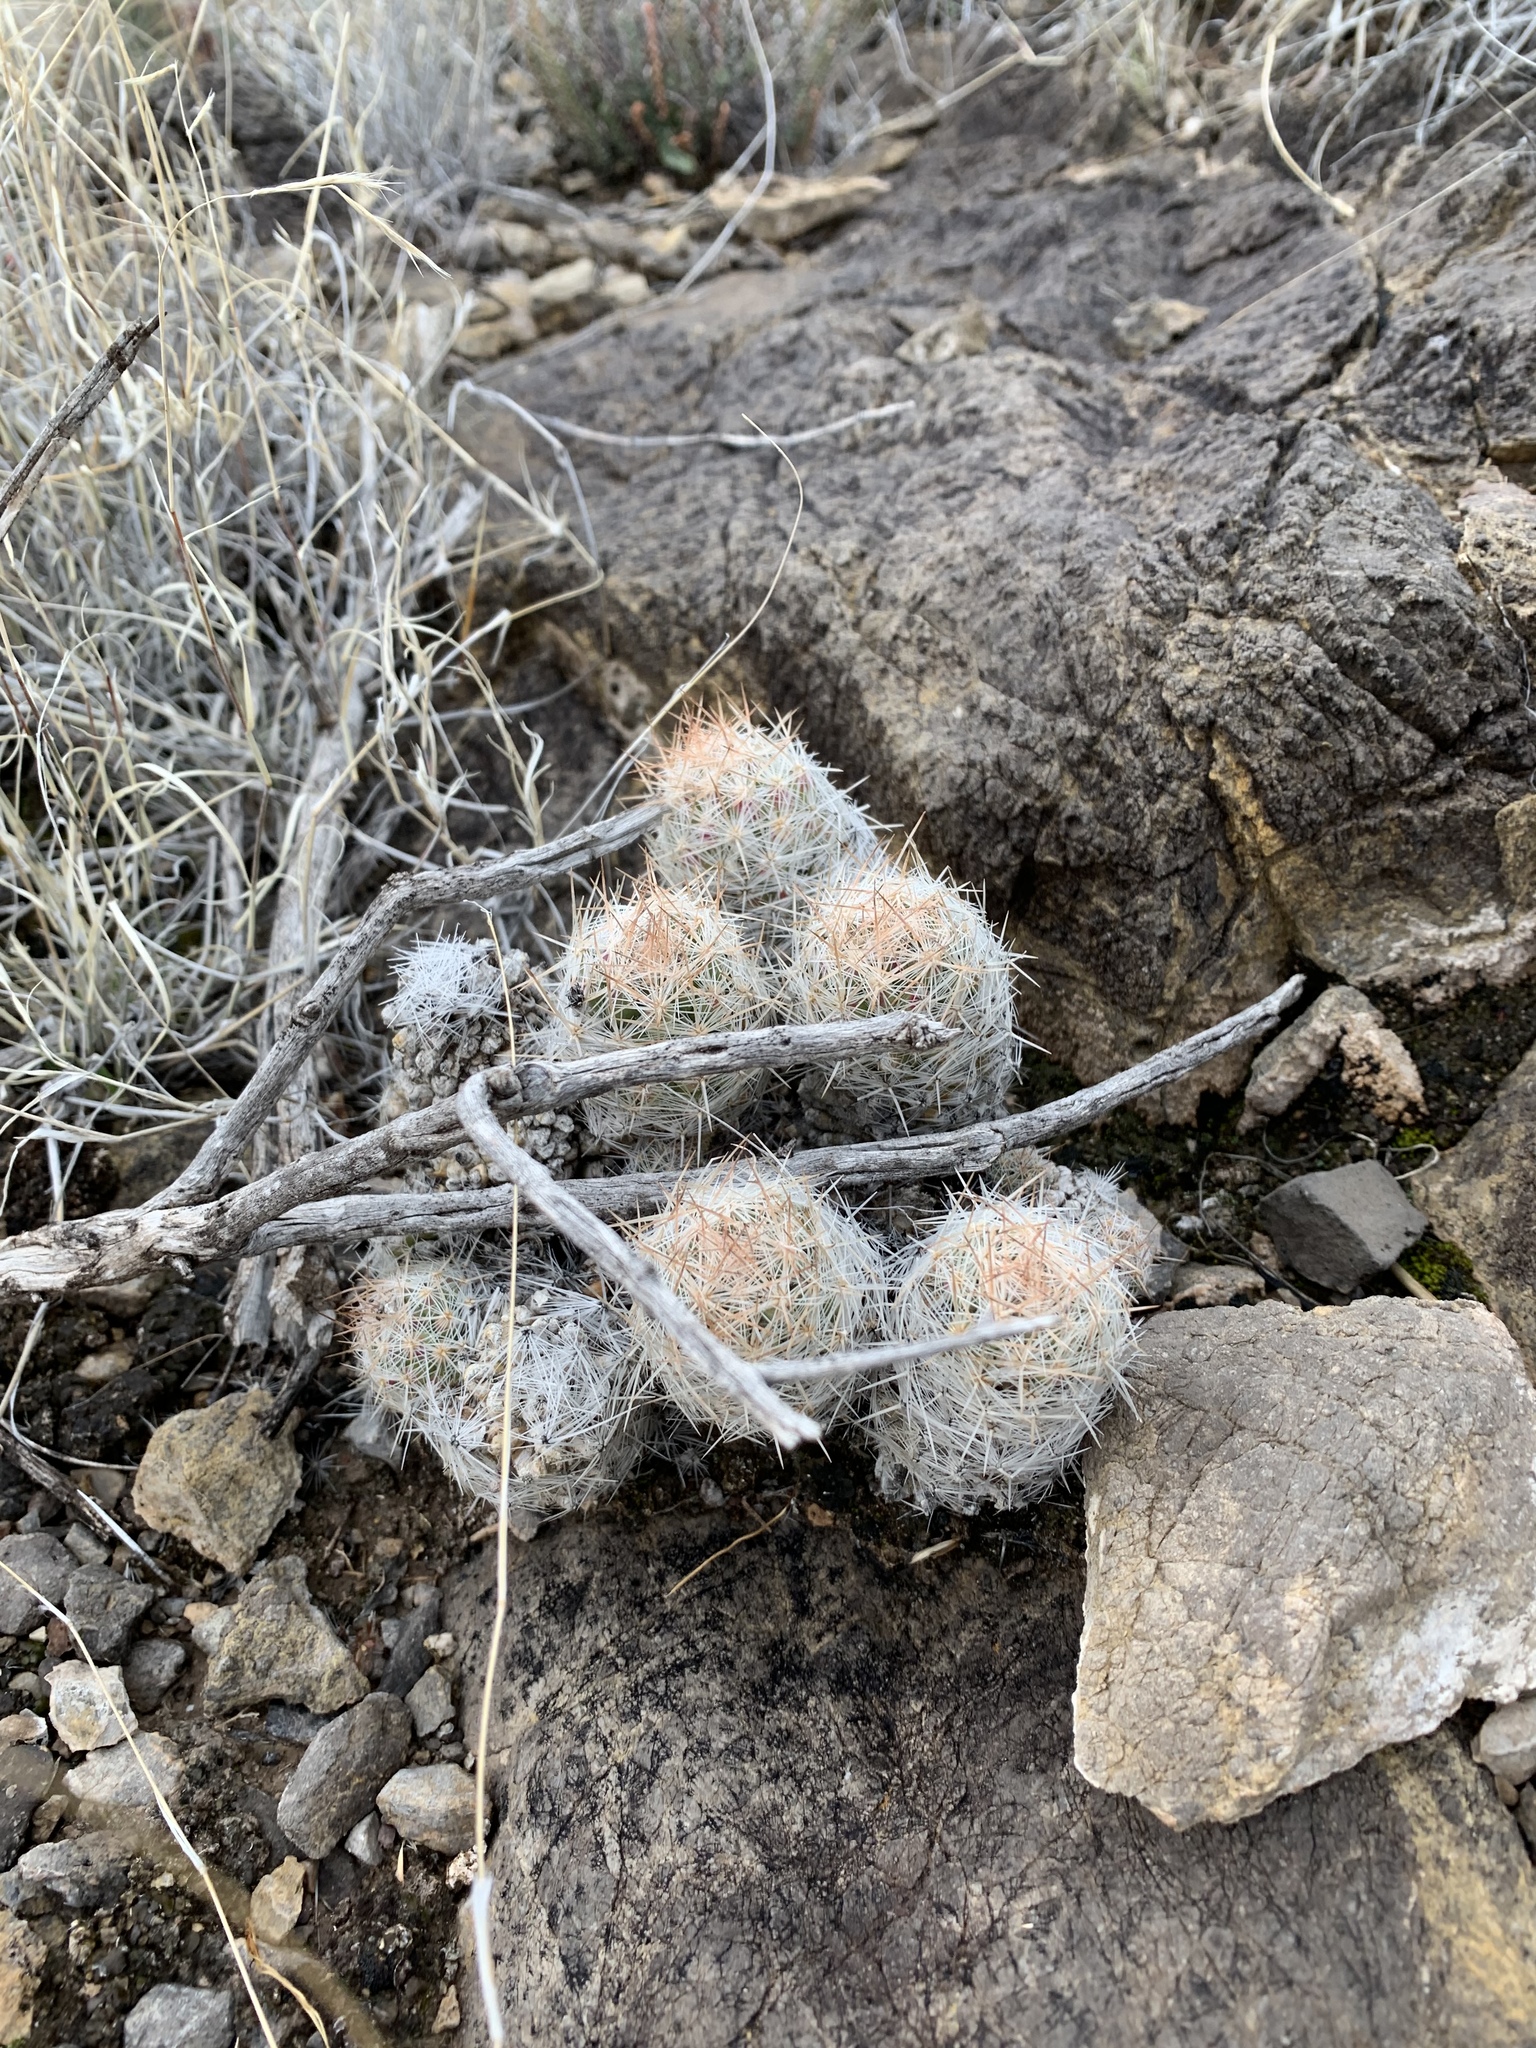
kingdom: Plantae
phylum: Tracheophyta
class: Magnoliopsida
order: Caryophyllales
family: Cactaceae
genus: Pelecyphora
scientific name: Pelecyphora tuberculosa
